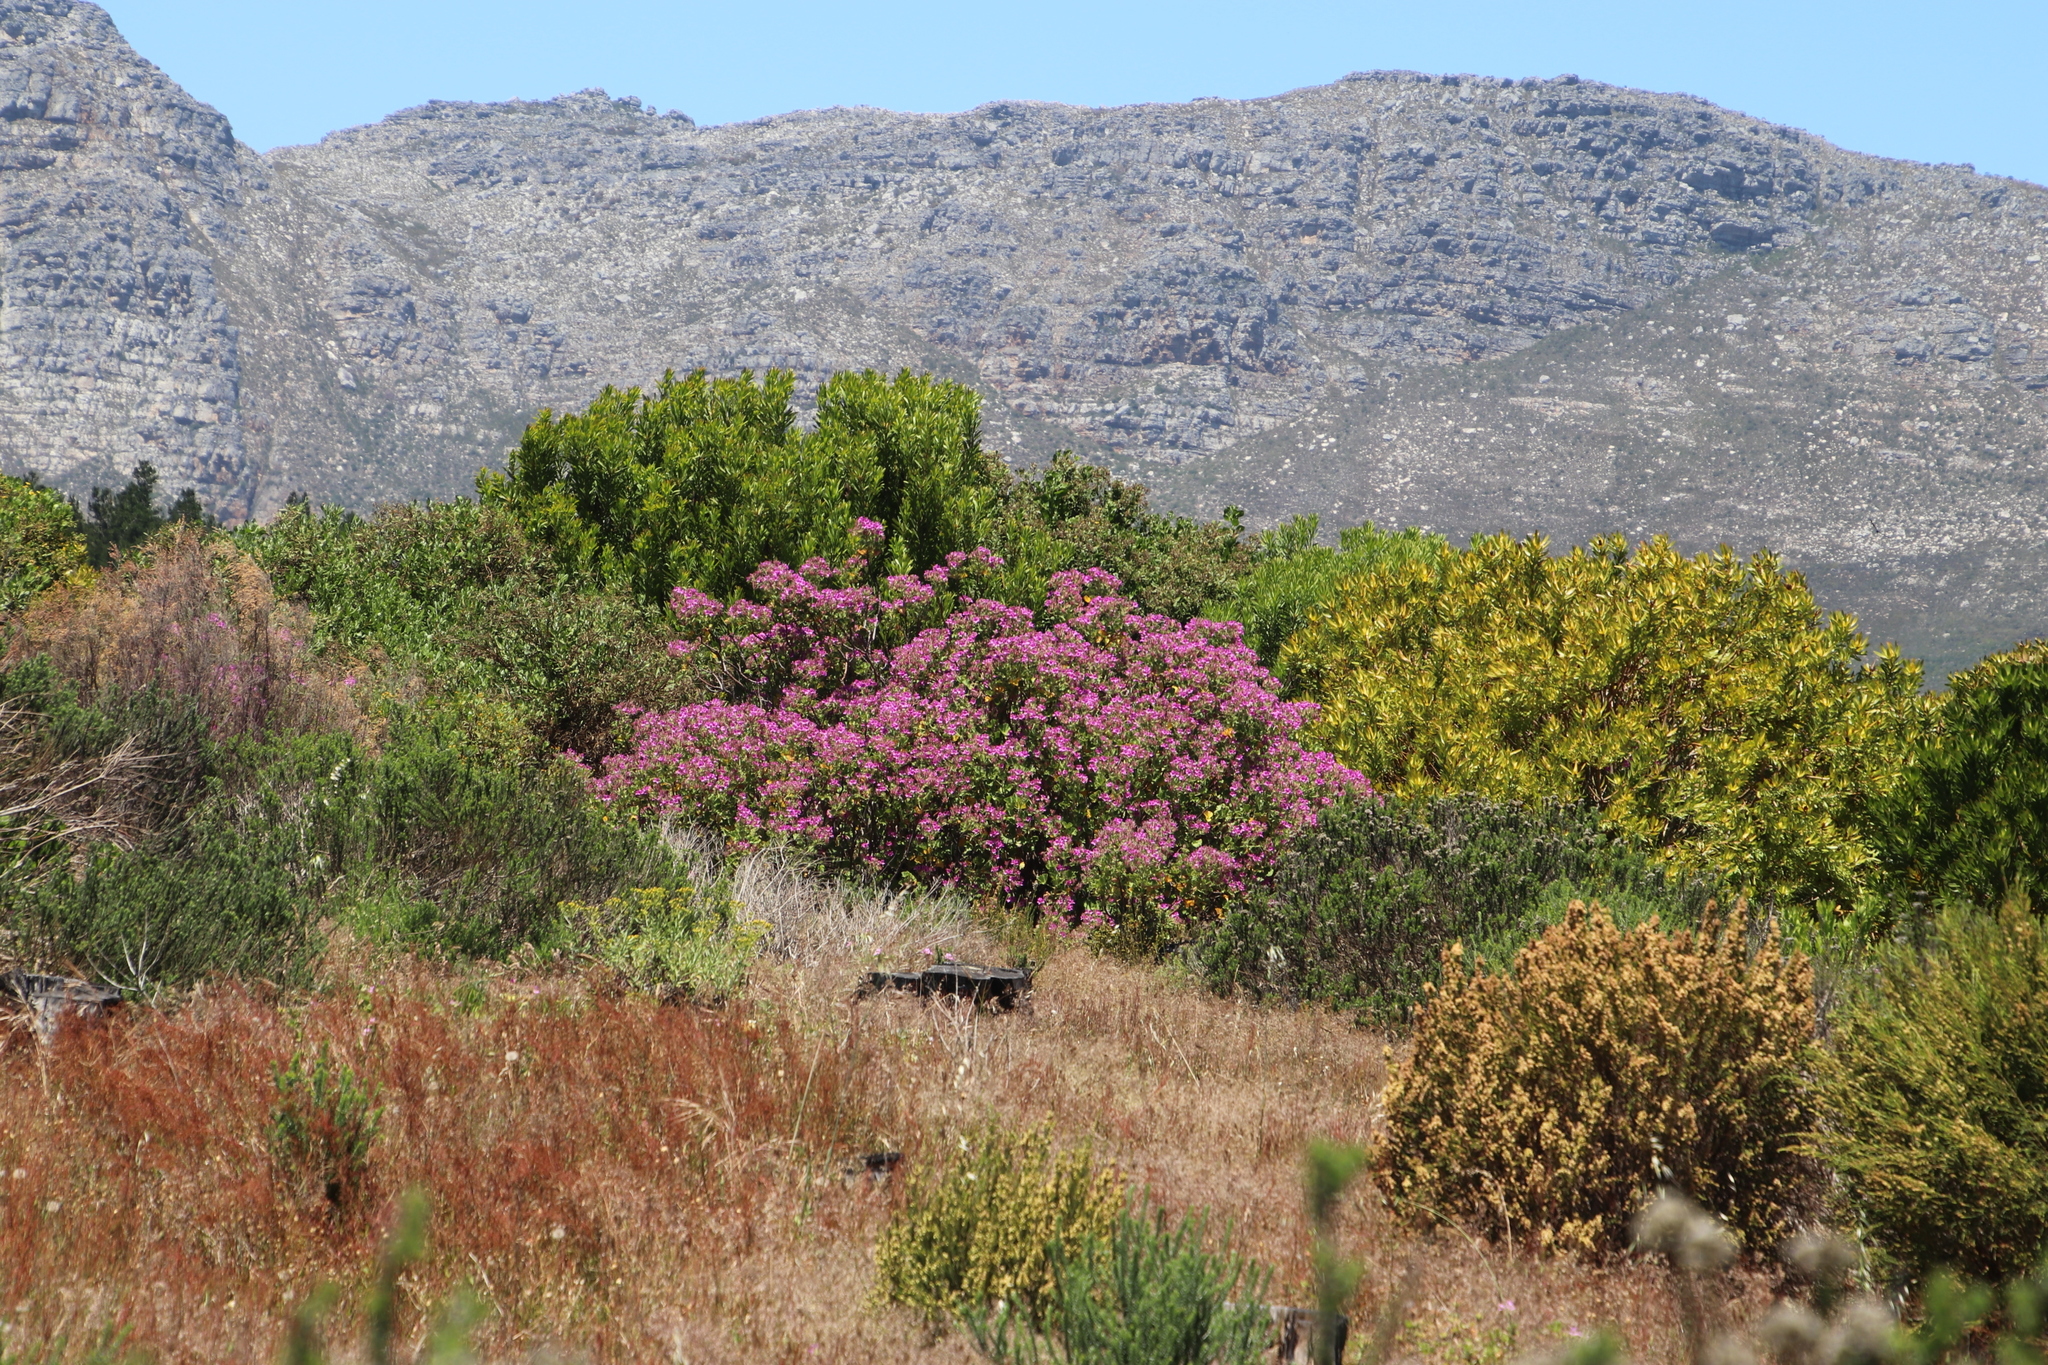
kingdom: Plantae
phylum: Tracheophyta
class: Magnoliopsida
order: Geraniales
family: Geraniaceae
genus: Pelargonium
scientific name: Pelargonium cucullatum
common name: Tree pelargonium
